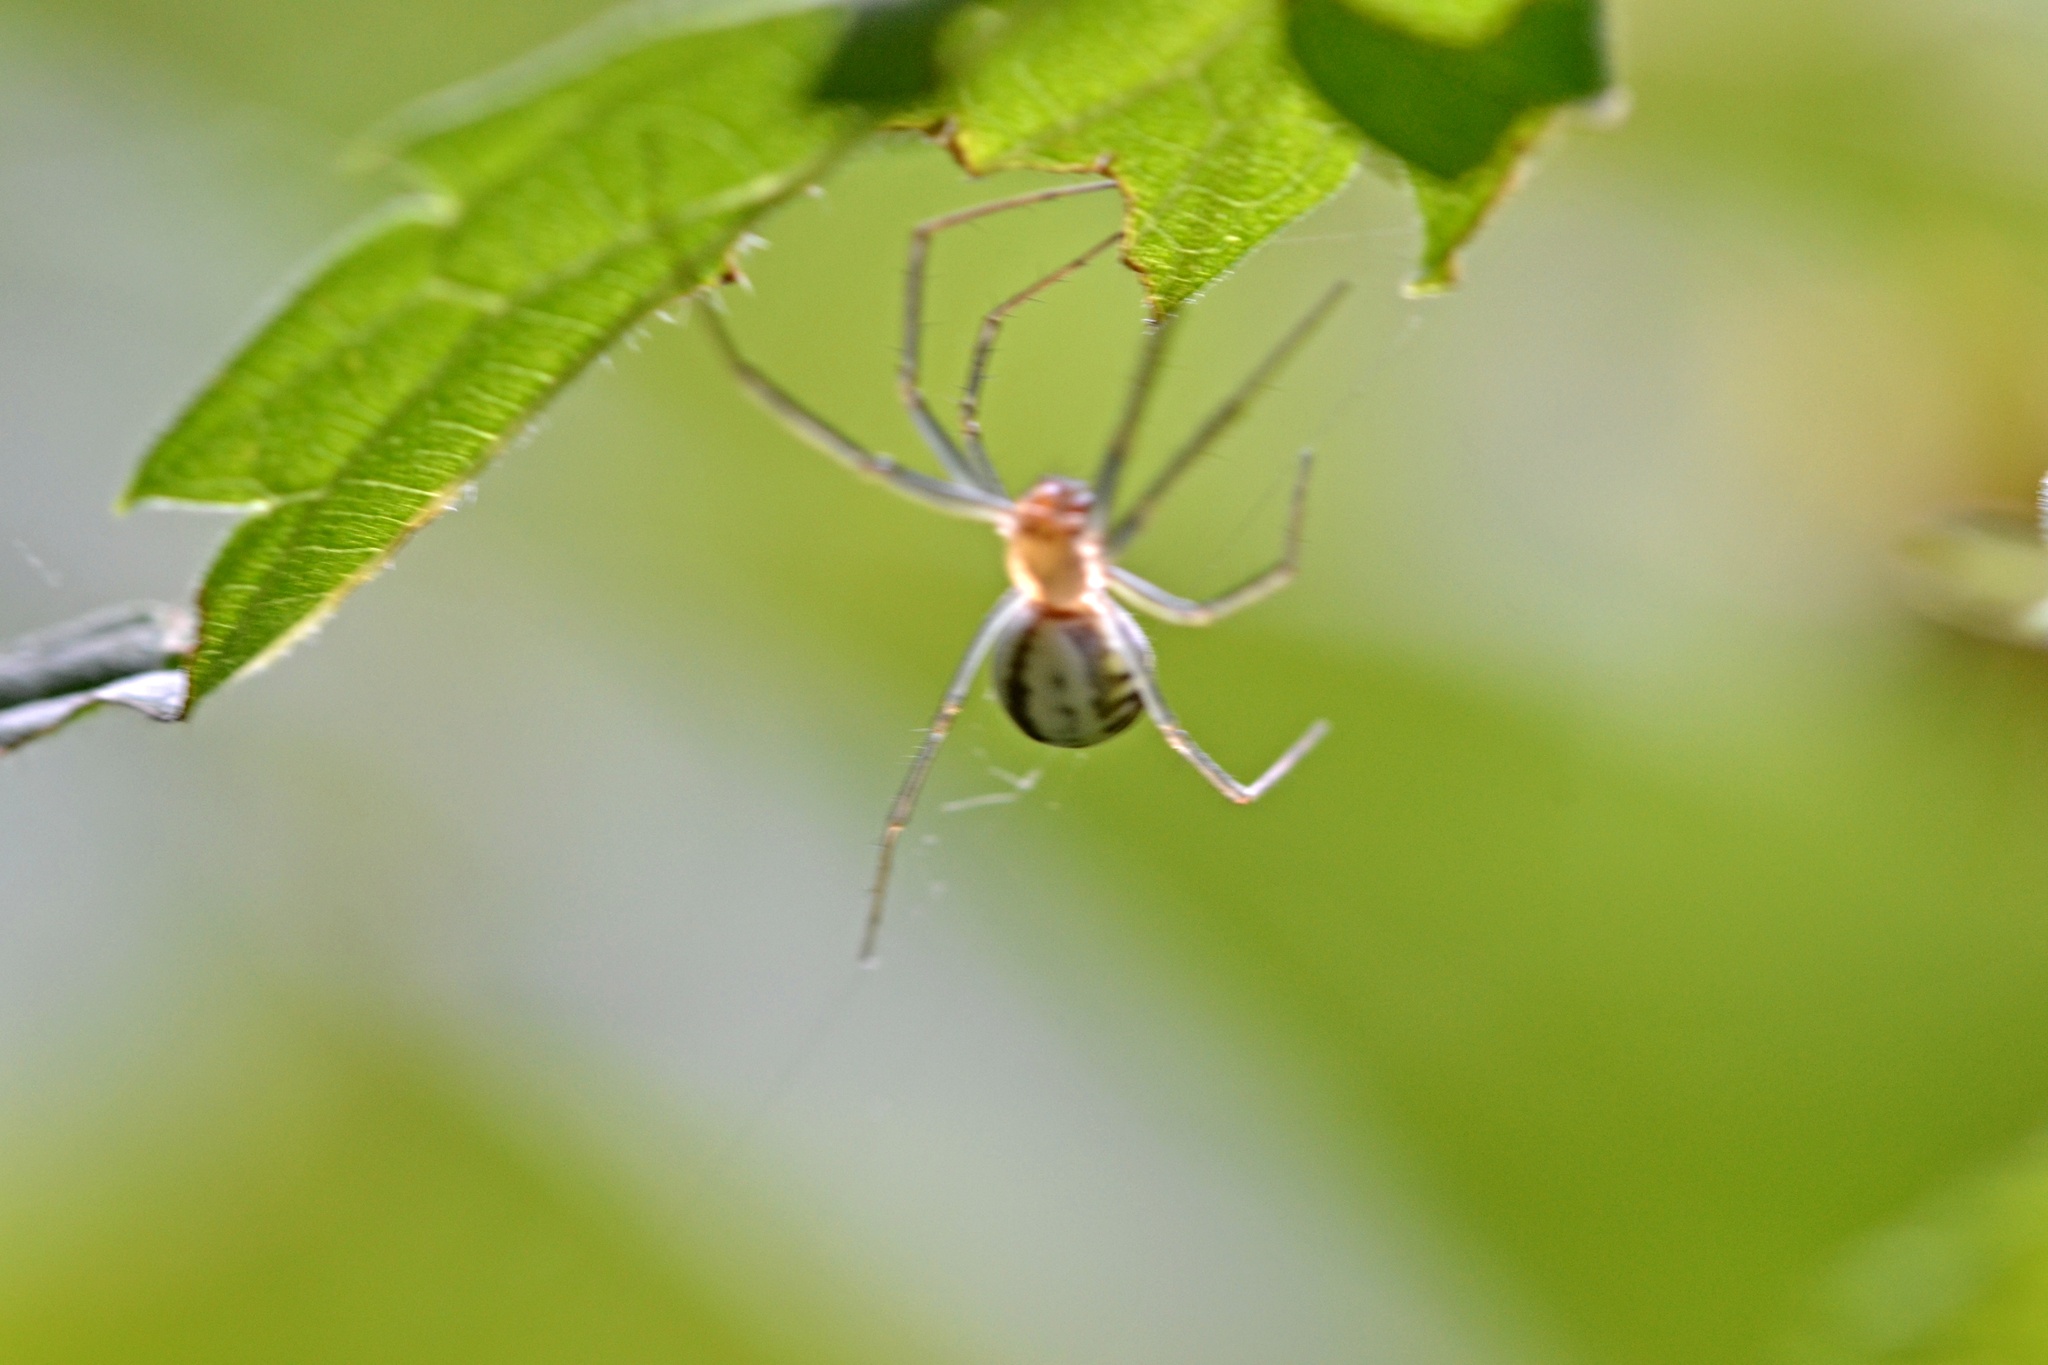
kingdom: Animalia
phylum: Arthropoda
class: Arachnida
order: Araneae
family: Linyphiidae
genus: Neriene
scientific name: Neriene emphana
